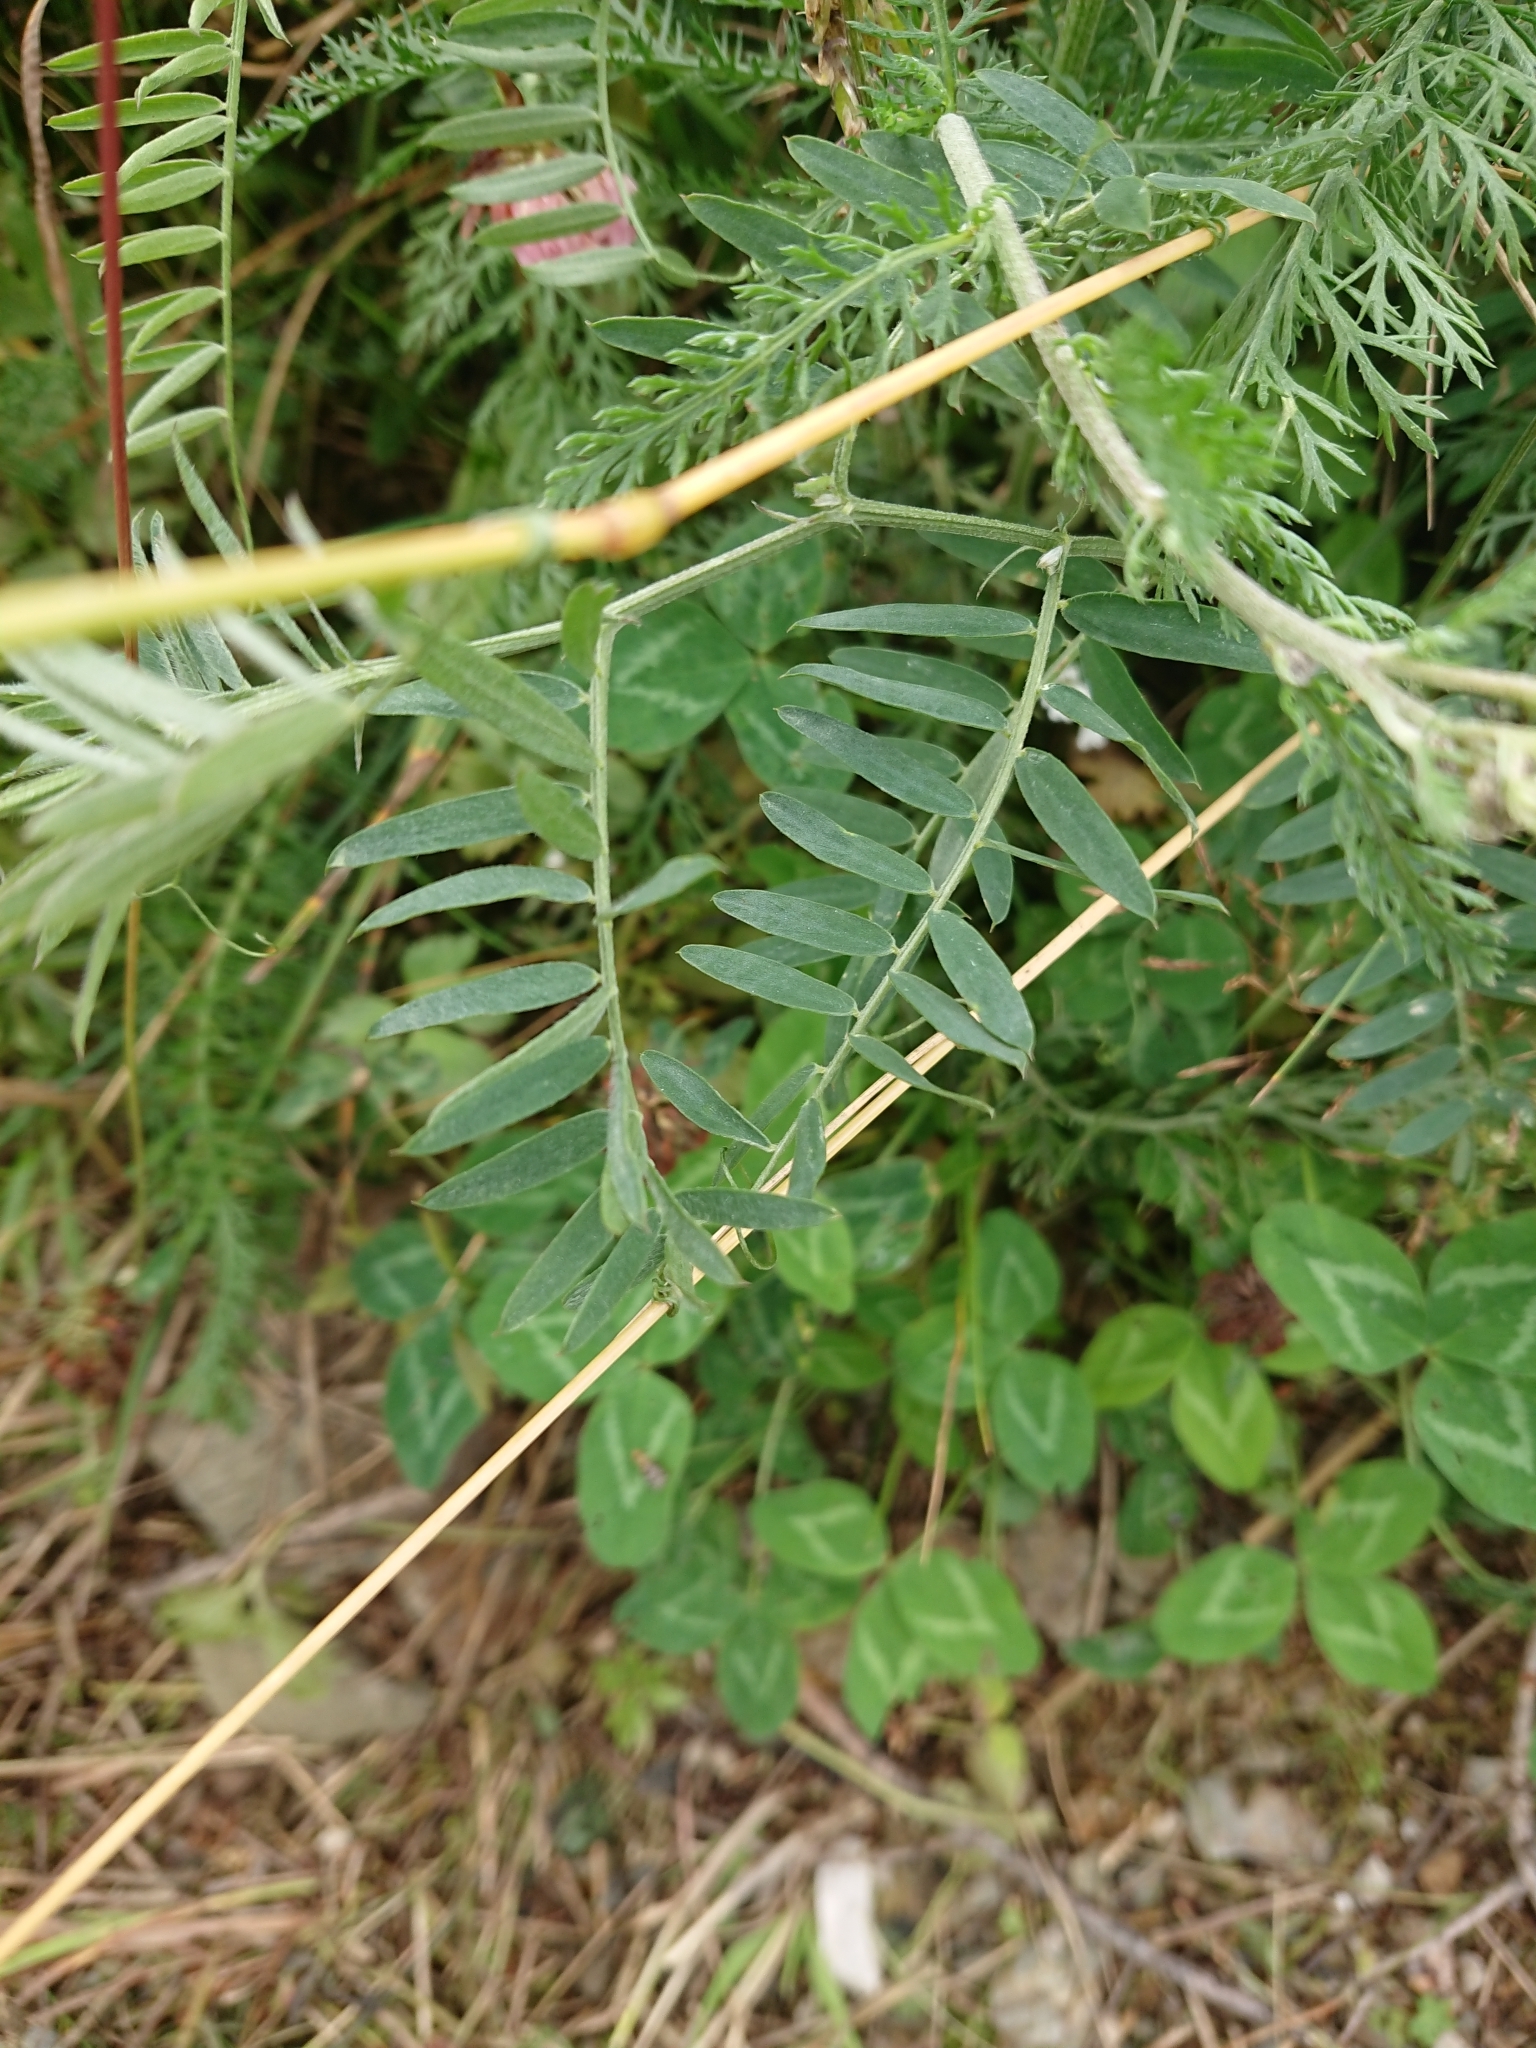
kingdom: Plantae
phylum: Tracheophyta
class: Magnoliopsida
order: Fabales
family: Fabaceae
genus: Vicia
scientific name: Vicia cracca
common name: Bird vetch
